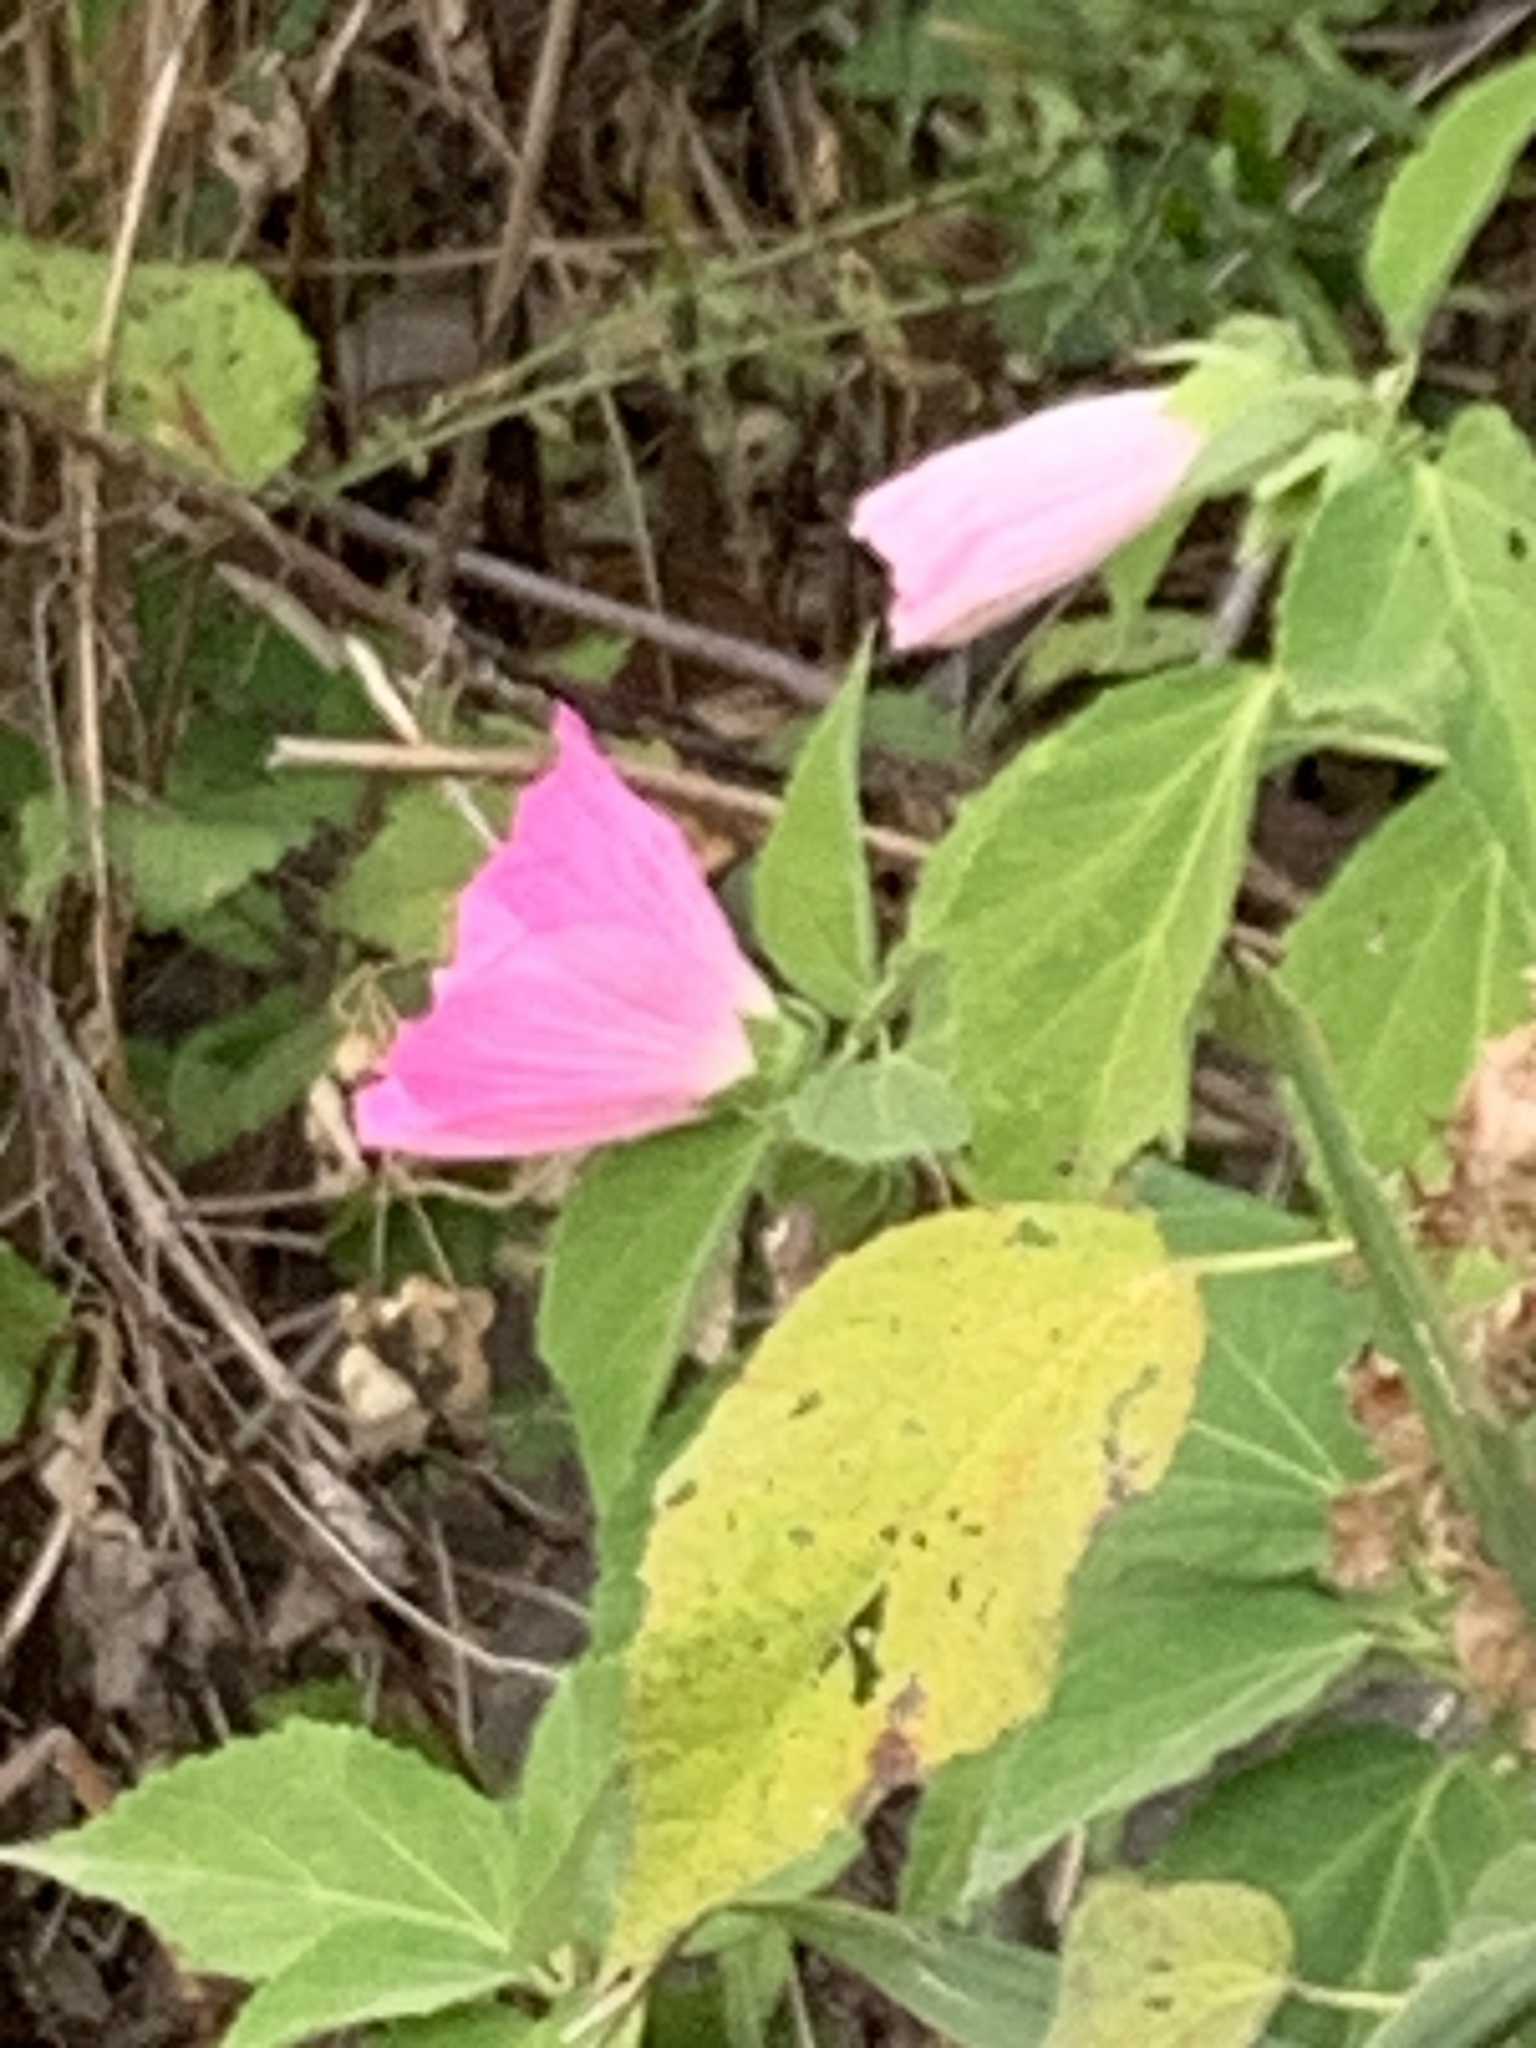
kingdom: Plantae
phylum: Tracheophyta
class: Magnoliopsida
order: Malvales
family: Malvaceae
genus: Hibiscus
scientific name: Hibiscus moscheutos
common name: Common rose-mallow
